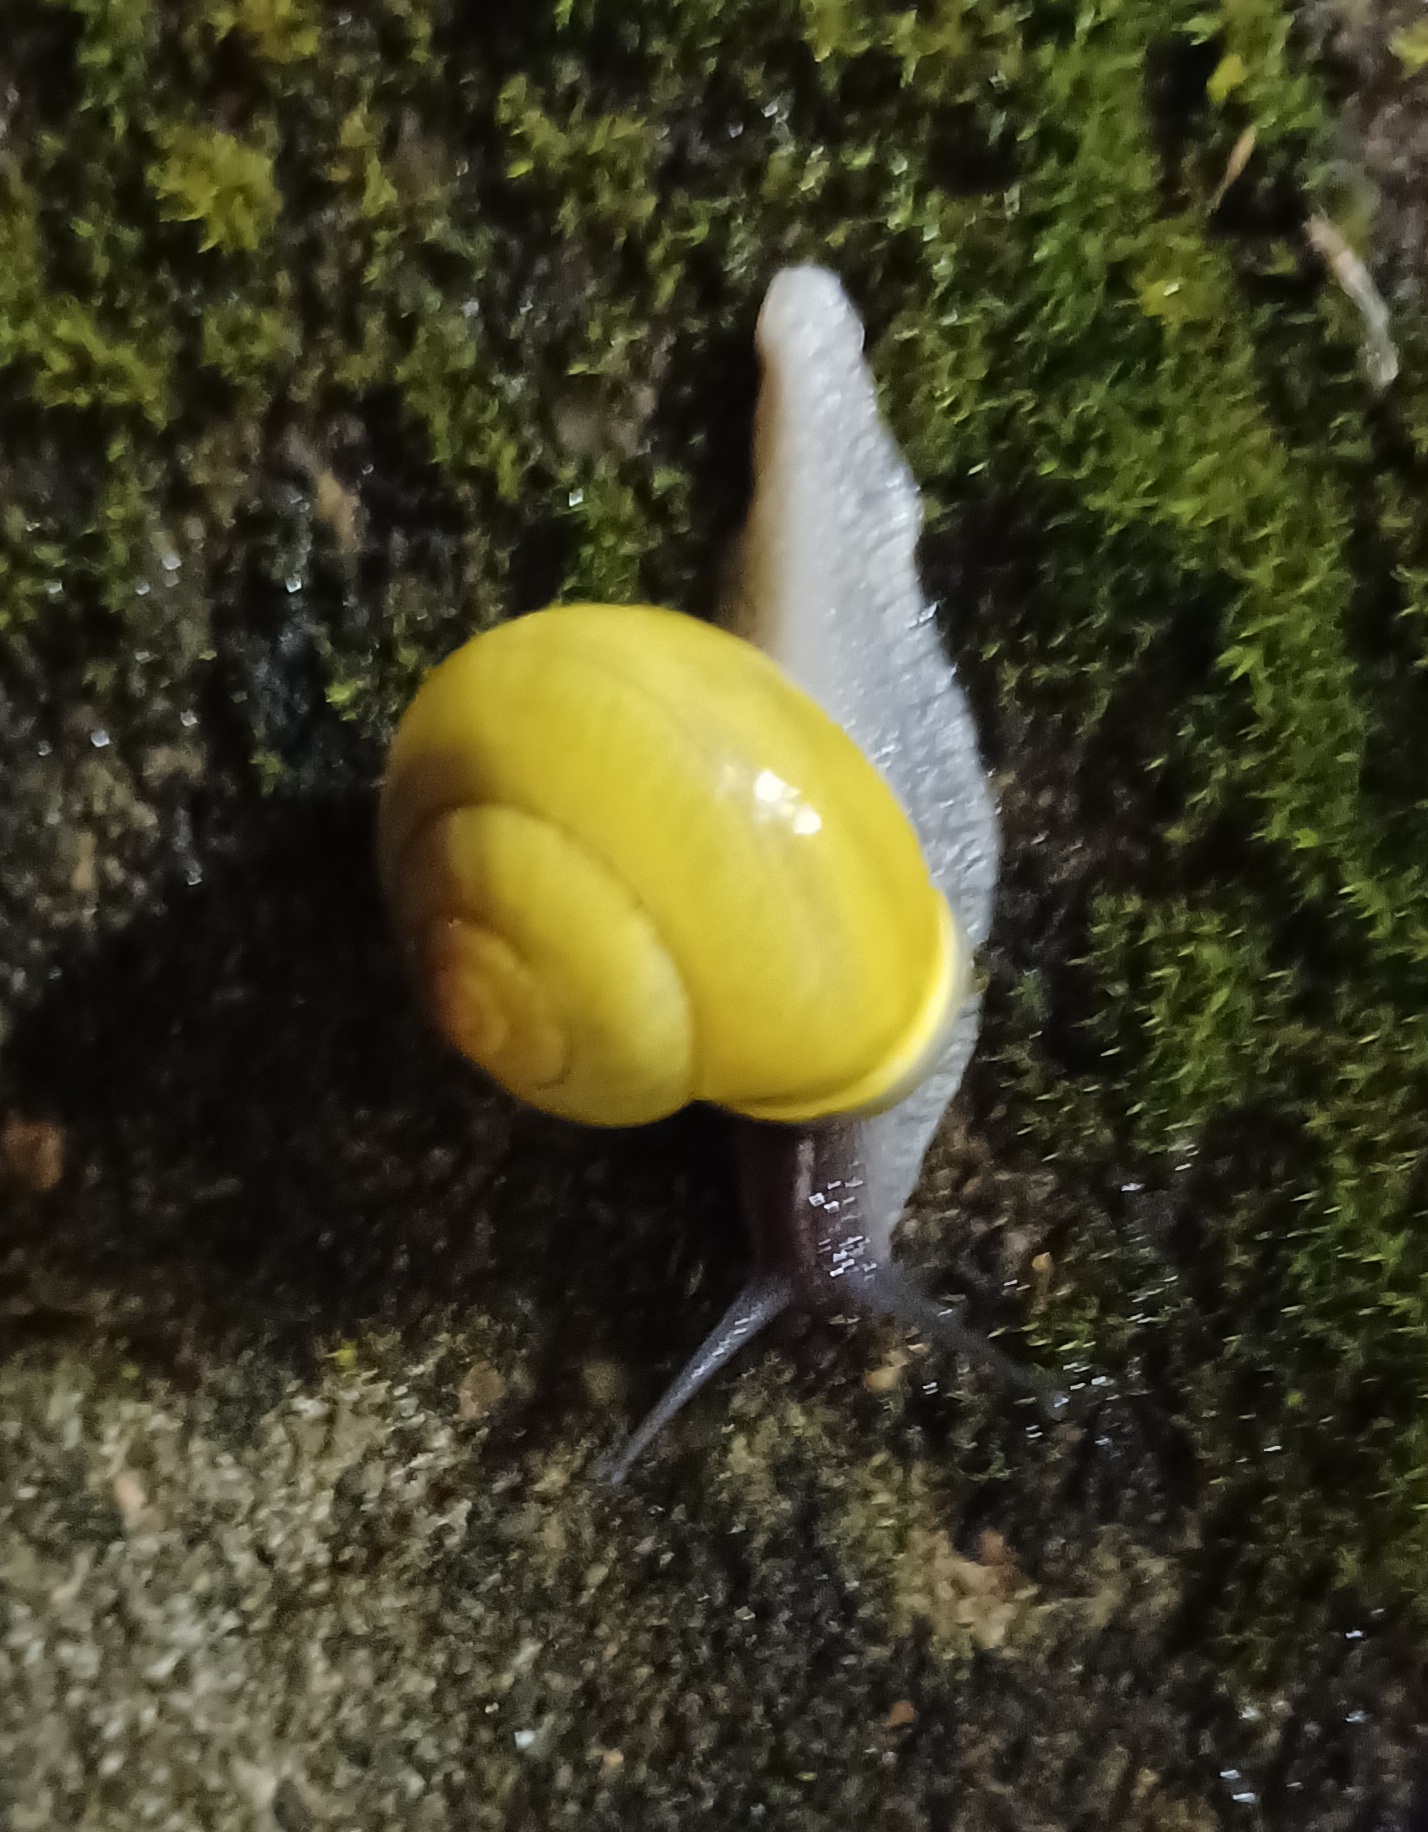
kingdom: Animalia
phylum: Mollusca
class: Gastropoda
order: Stylommatophora
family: Helicidae
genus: Cepaea
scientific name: Cepaea hortensis
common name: White-lip gardensnail
